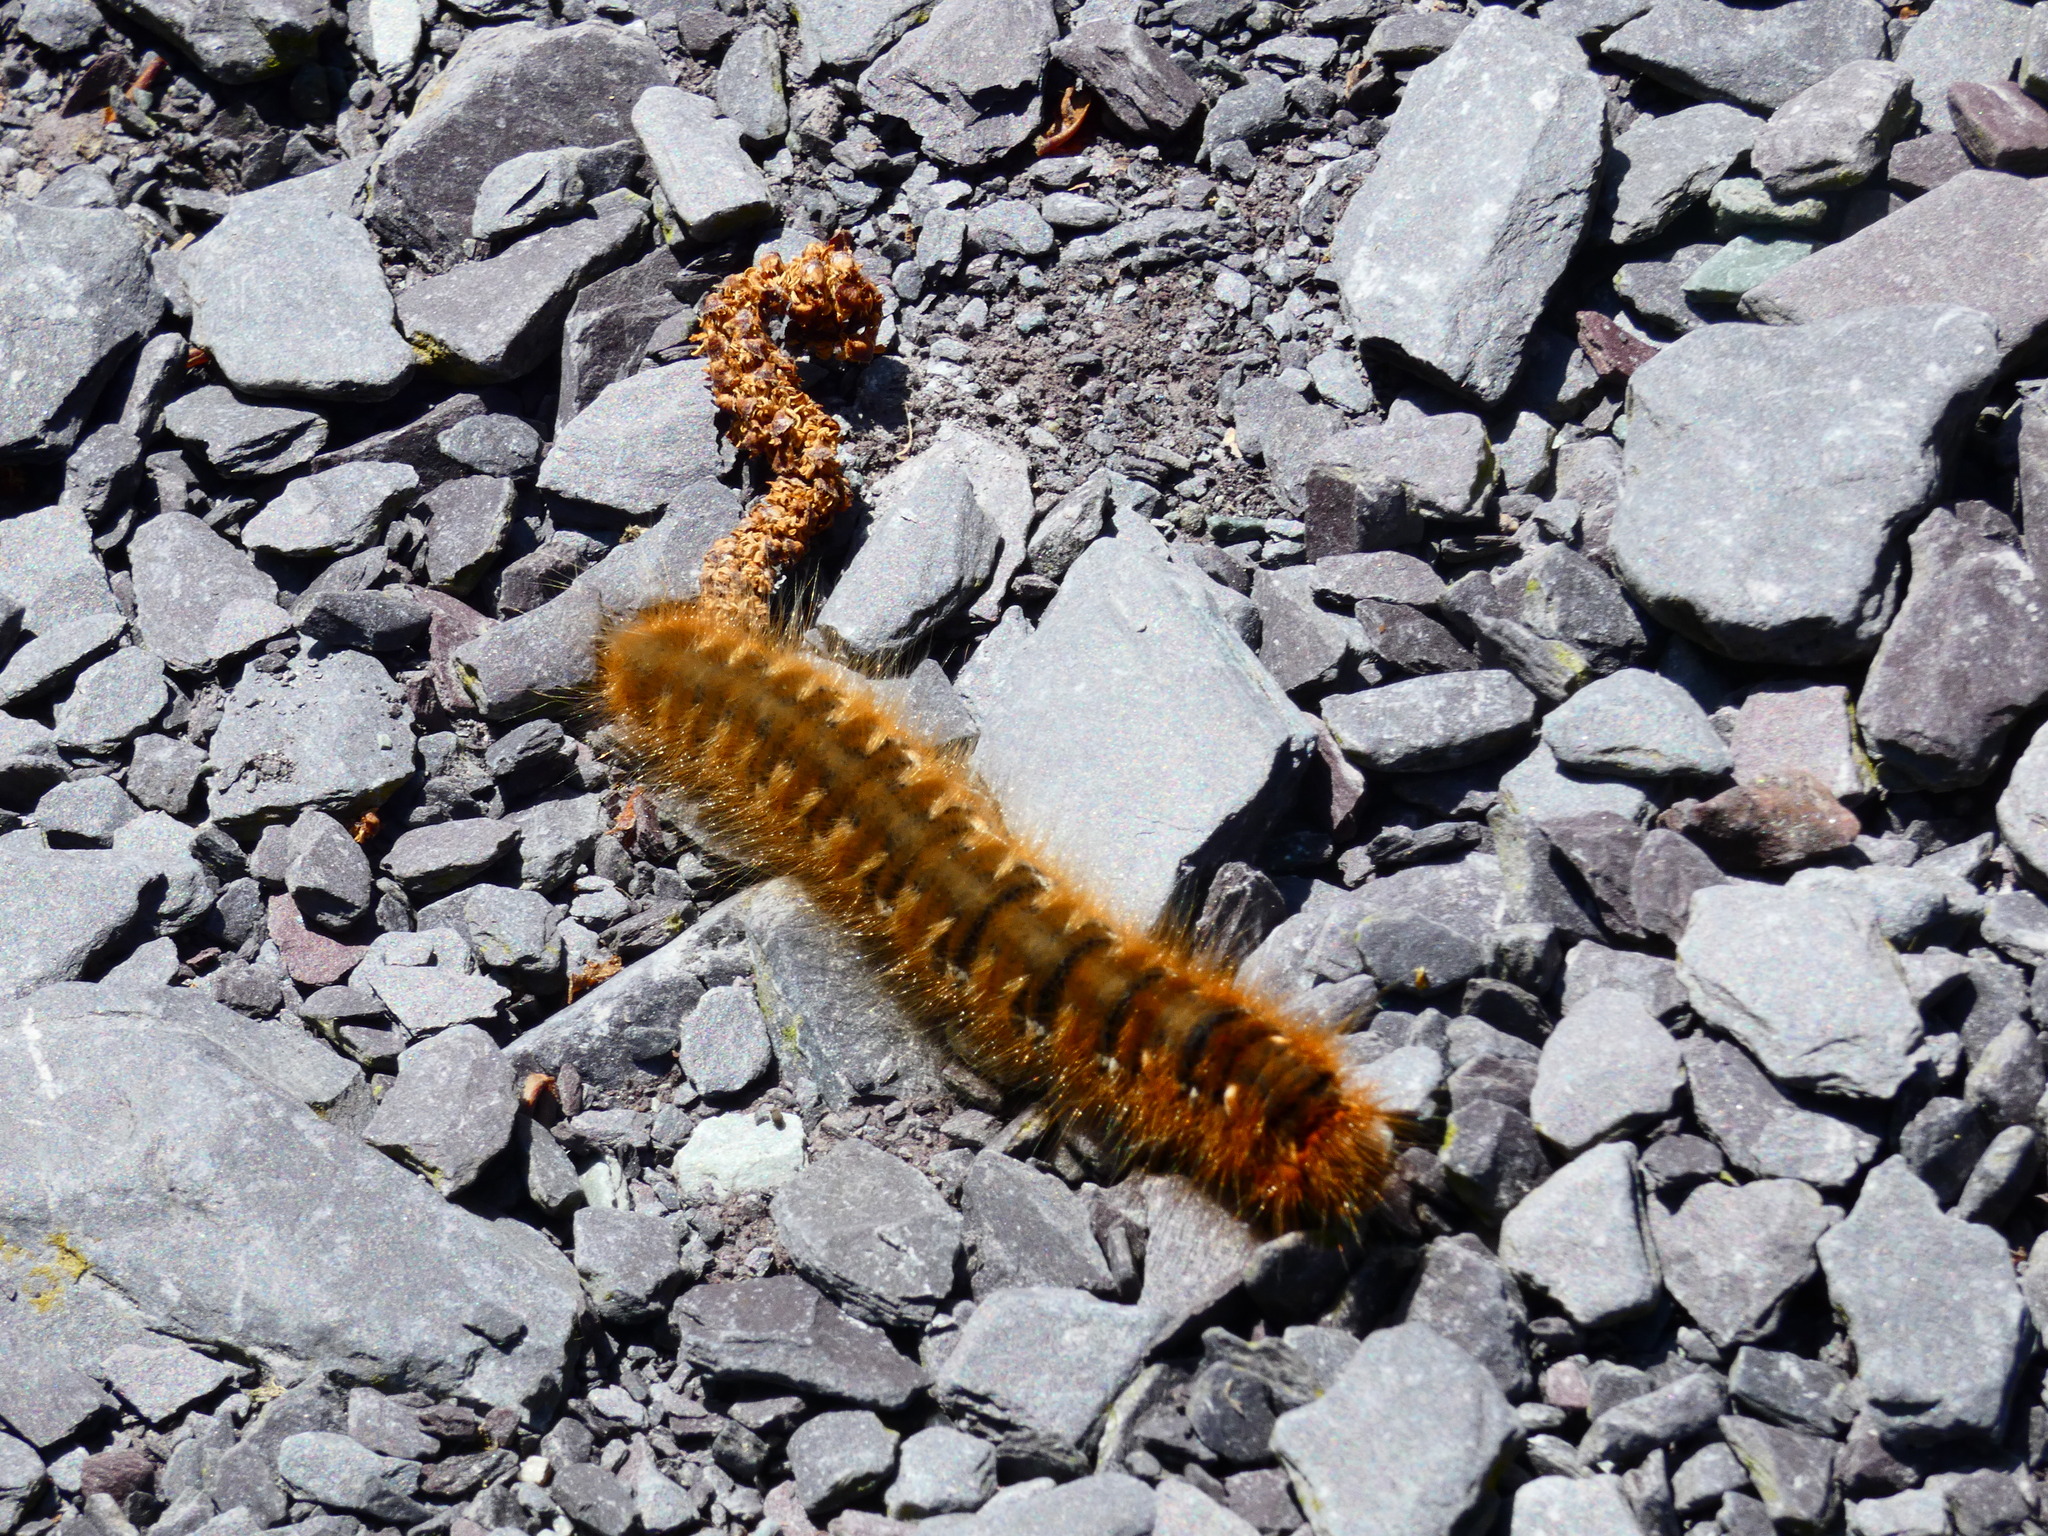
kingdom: Animalia
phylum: Arthropoda
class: Insecta
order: Lepidoptera
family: Lasiocampidae
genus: Lasiocampa
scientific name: Lasiocampa quercus
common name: Oak eggar
